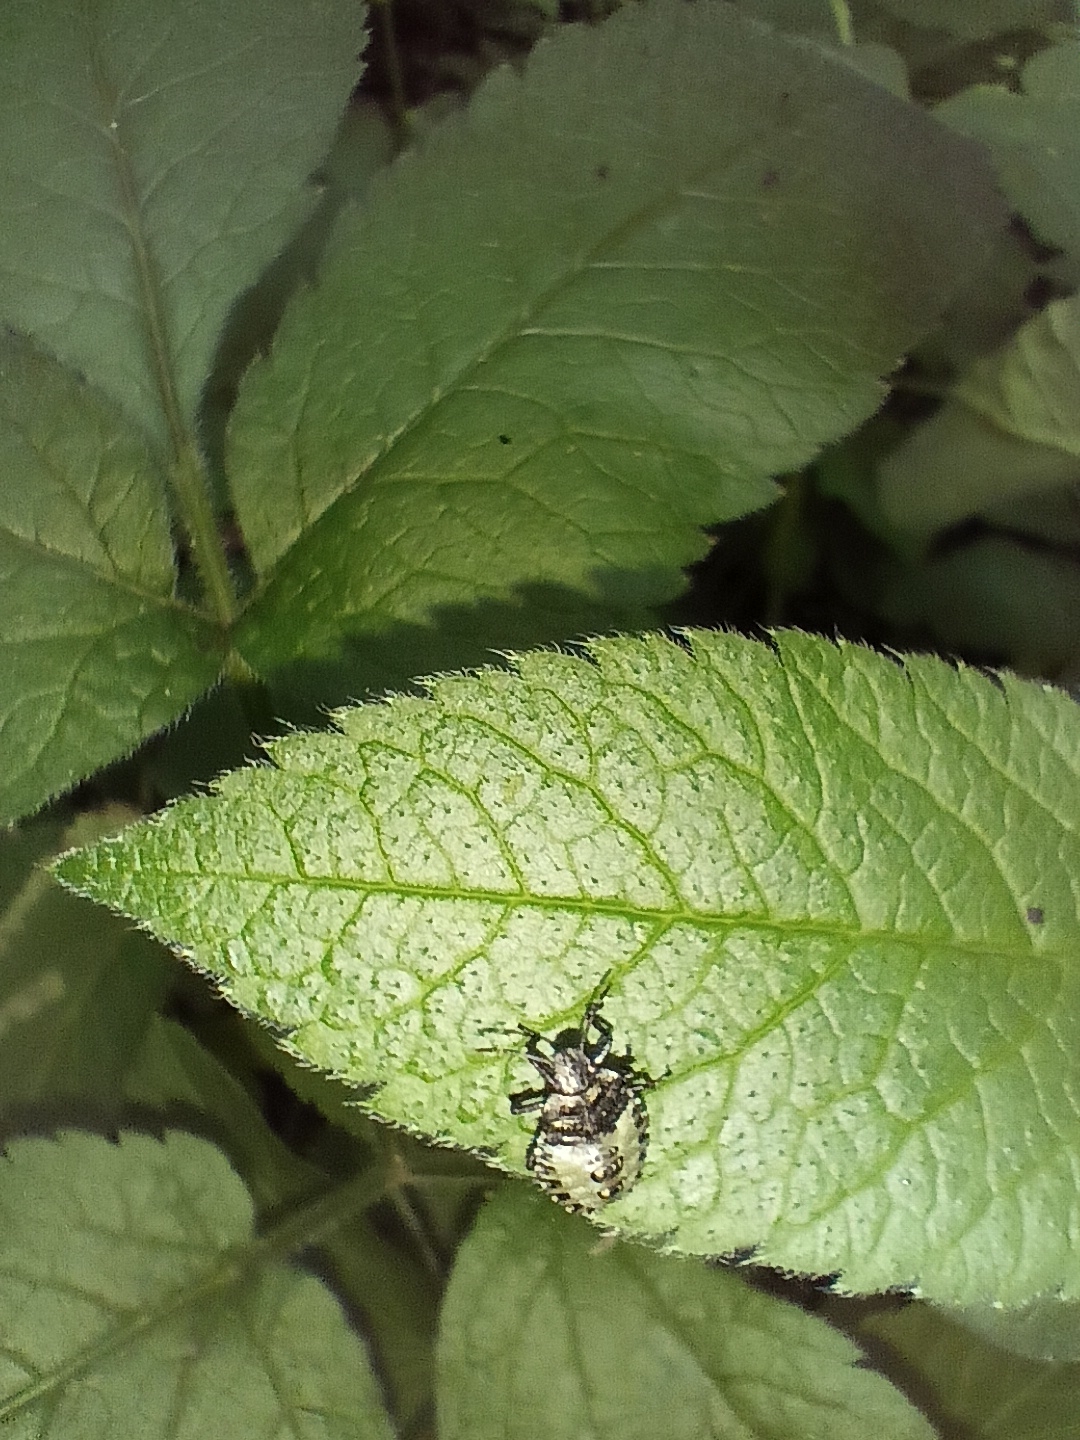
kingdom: Animalia
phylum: Arthropoda
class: Insecta
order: Hemiptera
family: Pentatomidae
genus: Pentatoma
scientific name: Pentatoma rufipes
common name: Forest bug
